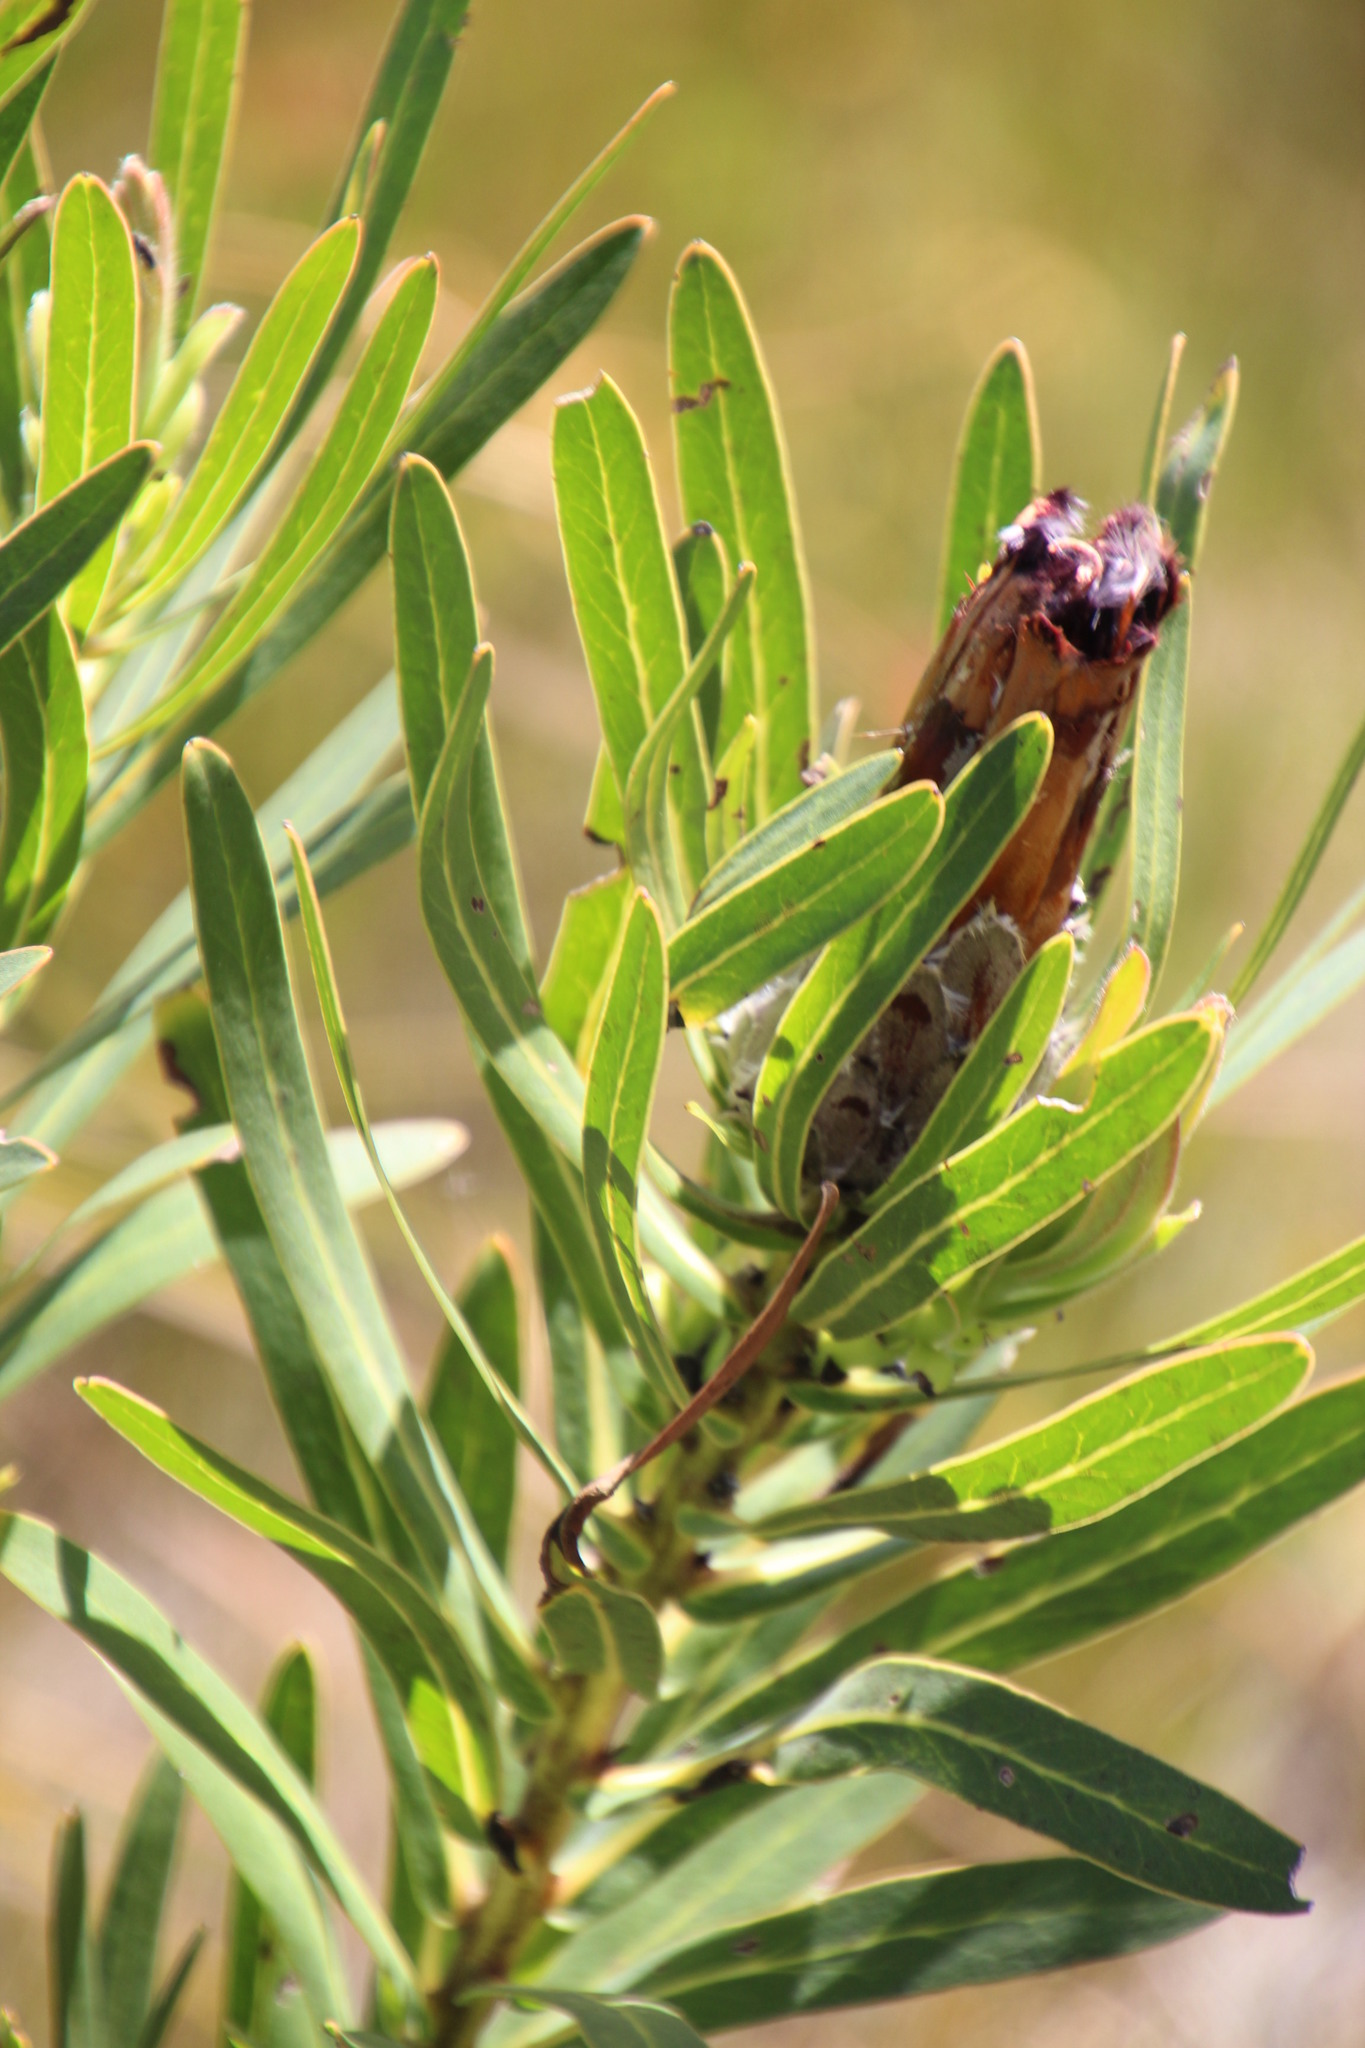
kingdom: Plantae
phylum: Tracheophyta
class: Magnoliopsida
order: Proteales
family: Proteaceae
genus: Protea
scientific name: Protea lepidocarpodendron
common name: Black-bearded protea
